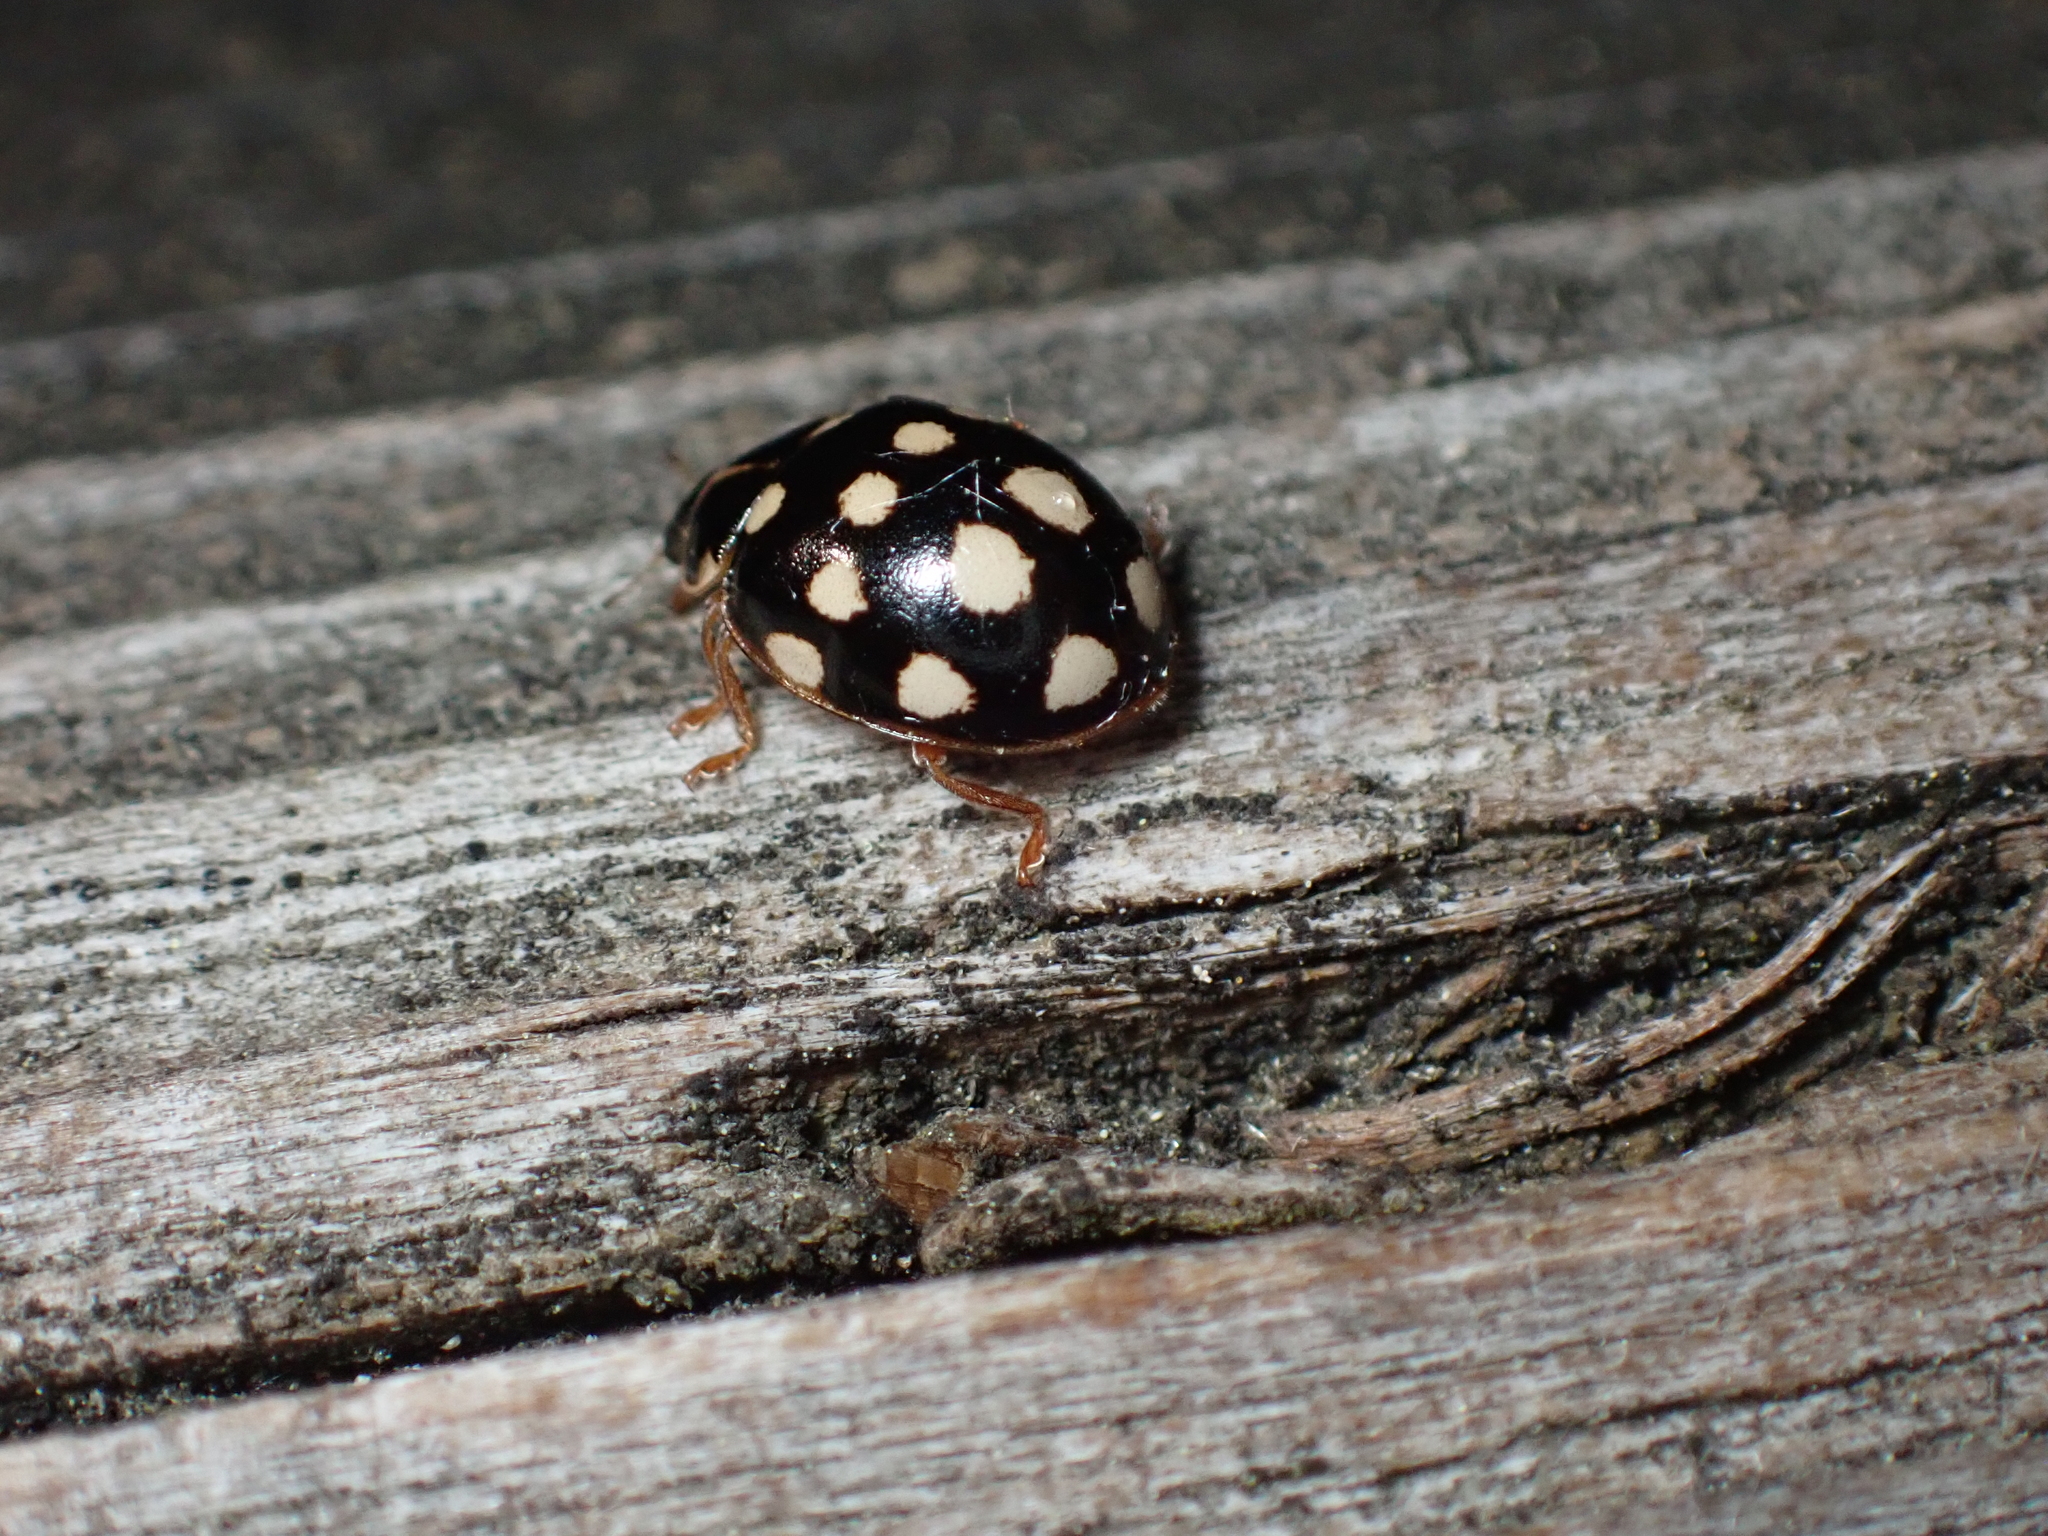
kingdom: Animalia
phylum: Arthropoda
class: Insecta
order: Coleoptera
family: Coccinellidae
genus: Calvia
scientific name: Calvia quatuordecimguttata
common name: Cream-spot ladybird
